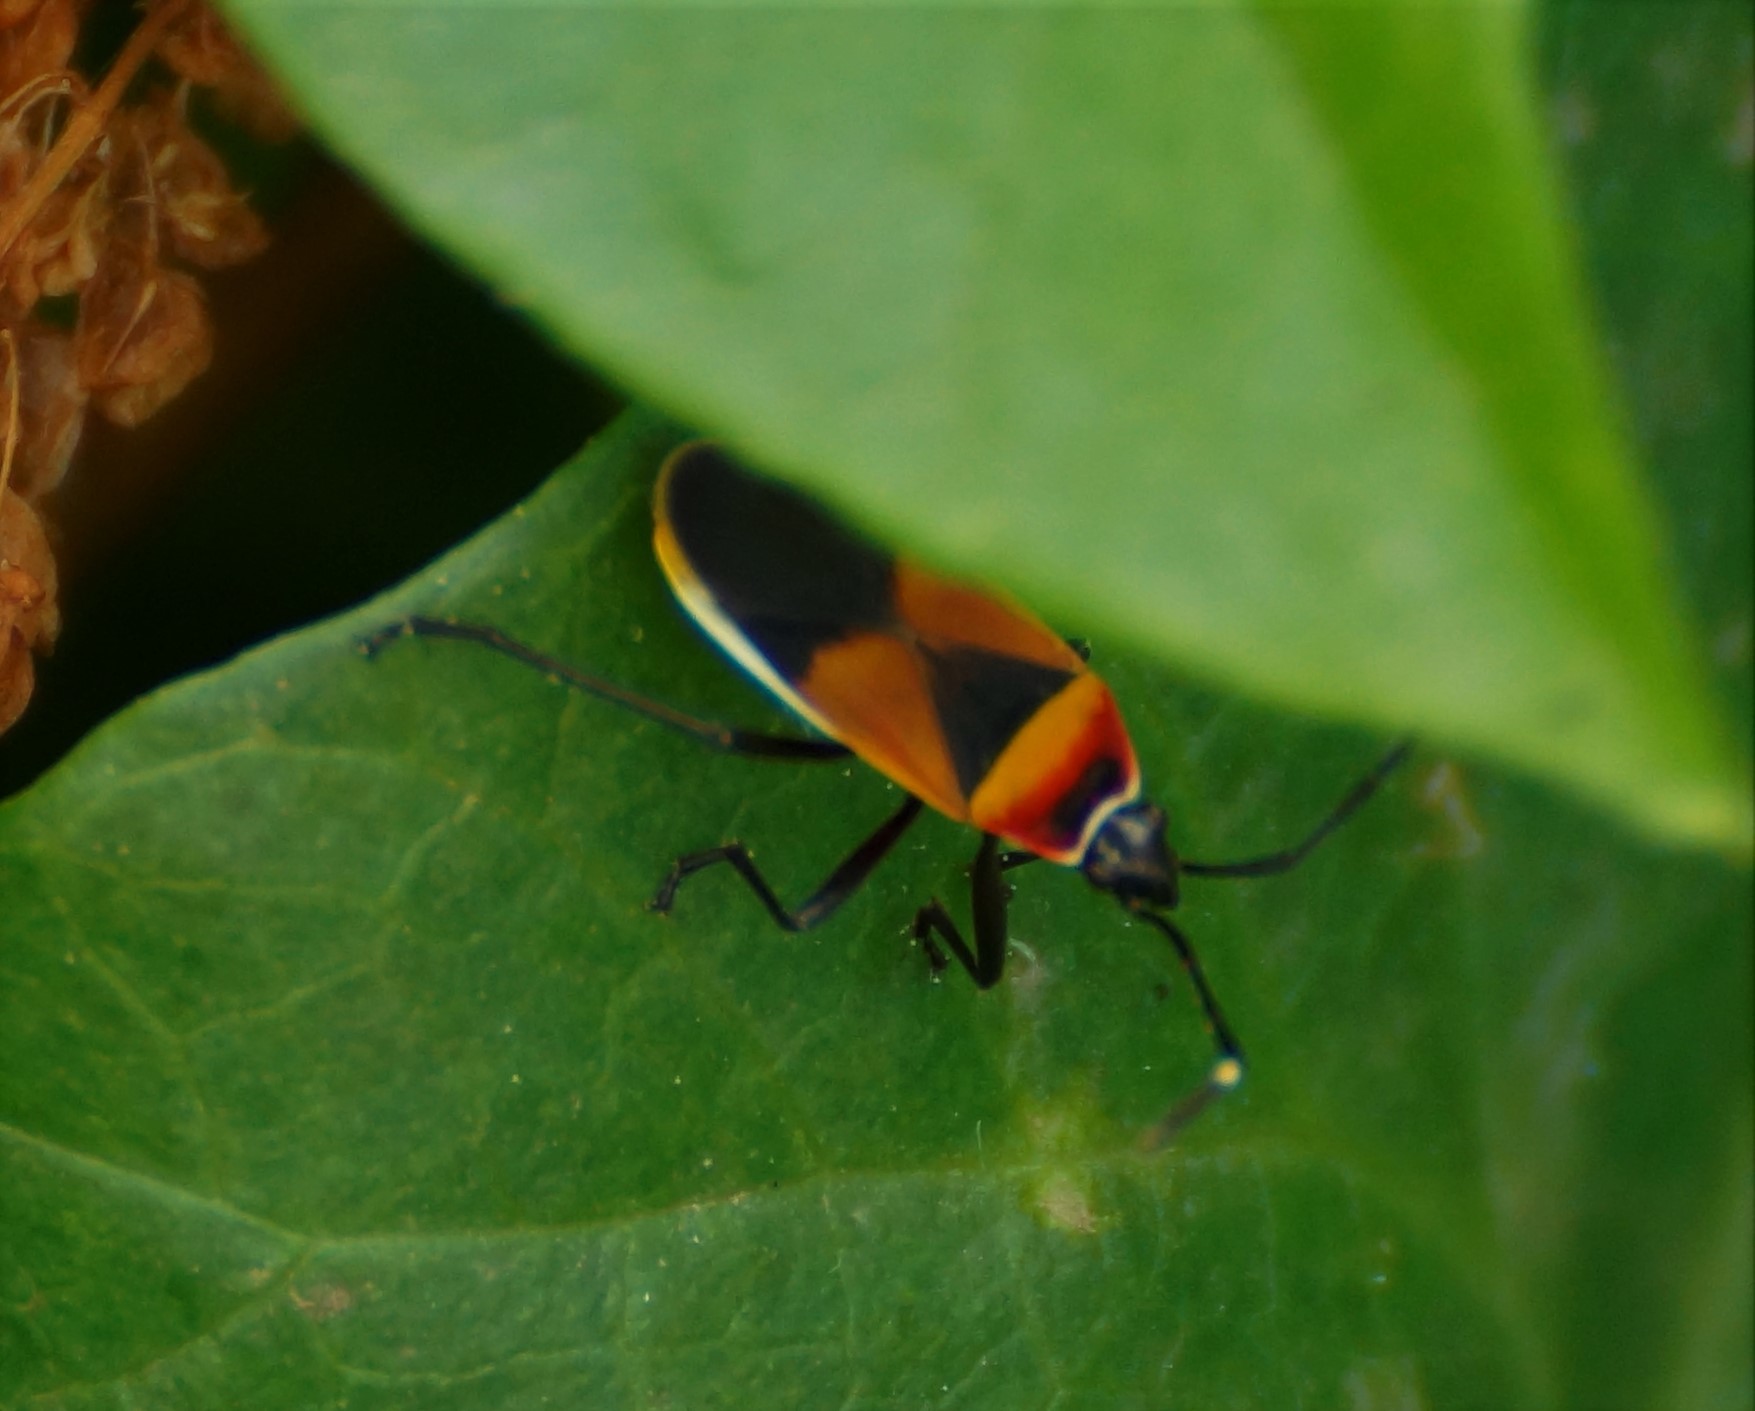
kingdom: Animalia
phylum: Arthropoda
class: Insecta
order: Hemiptera
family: Pyrrhocoridae
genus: Dindymus
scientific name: Dindymus
